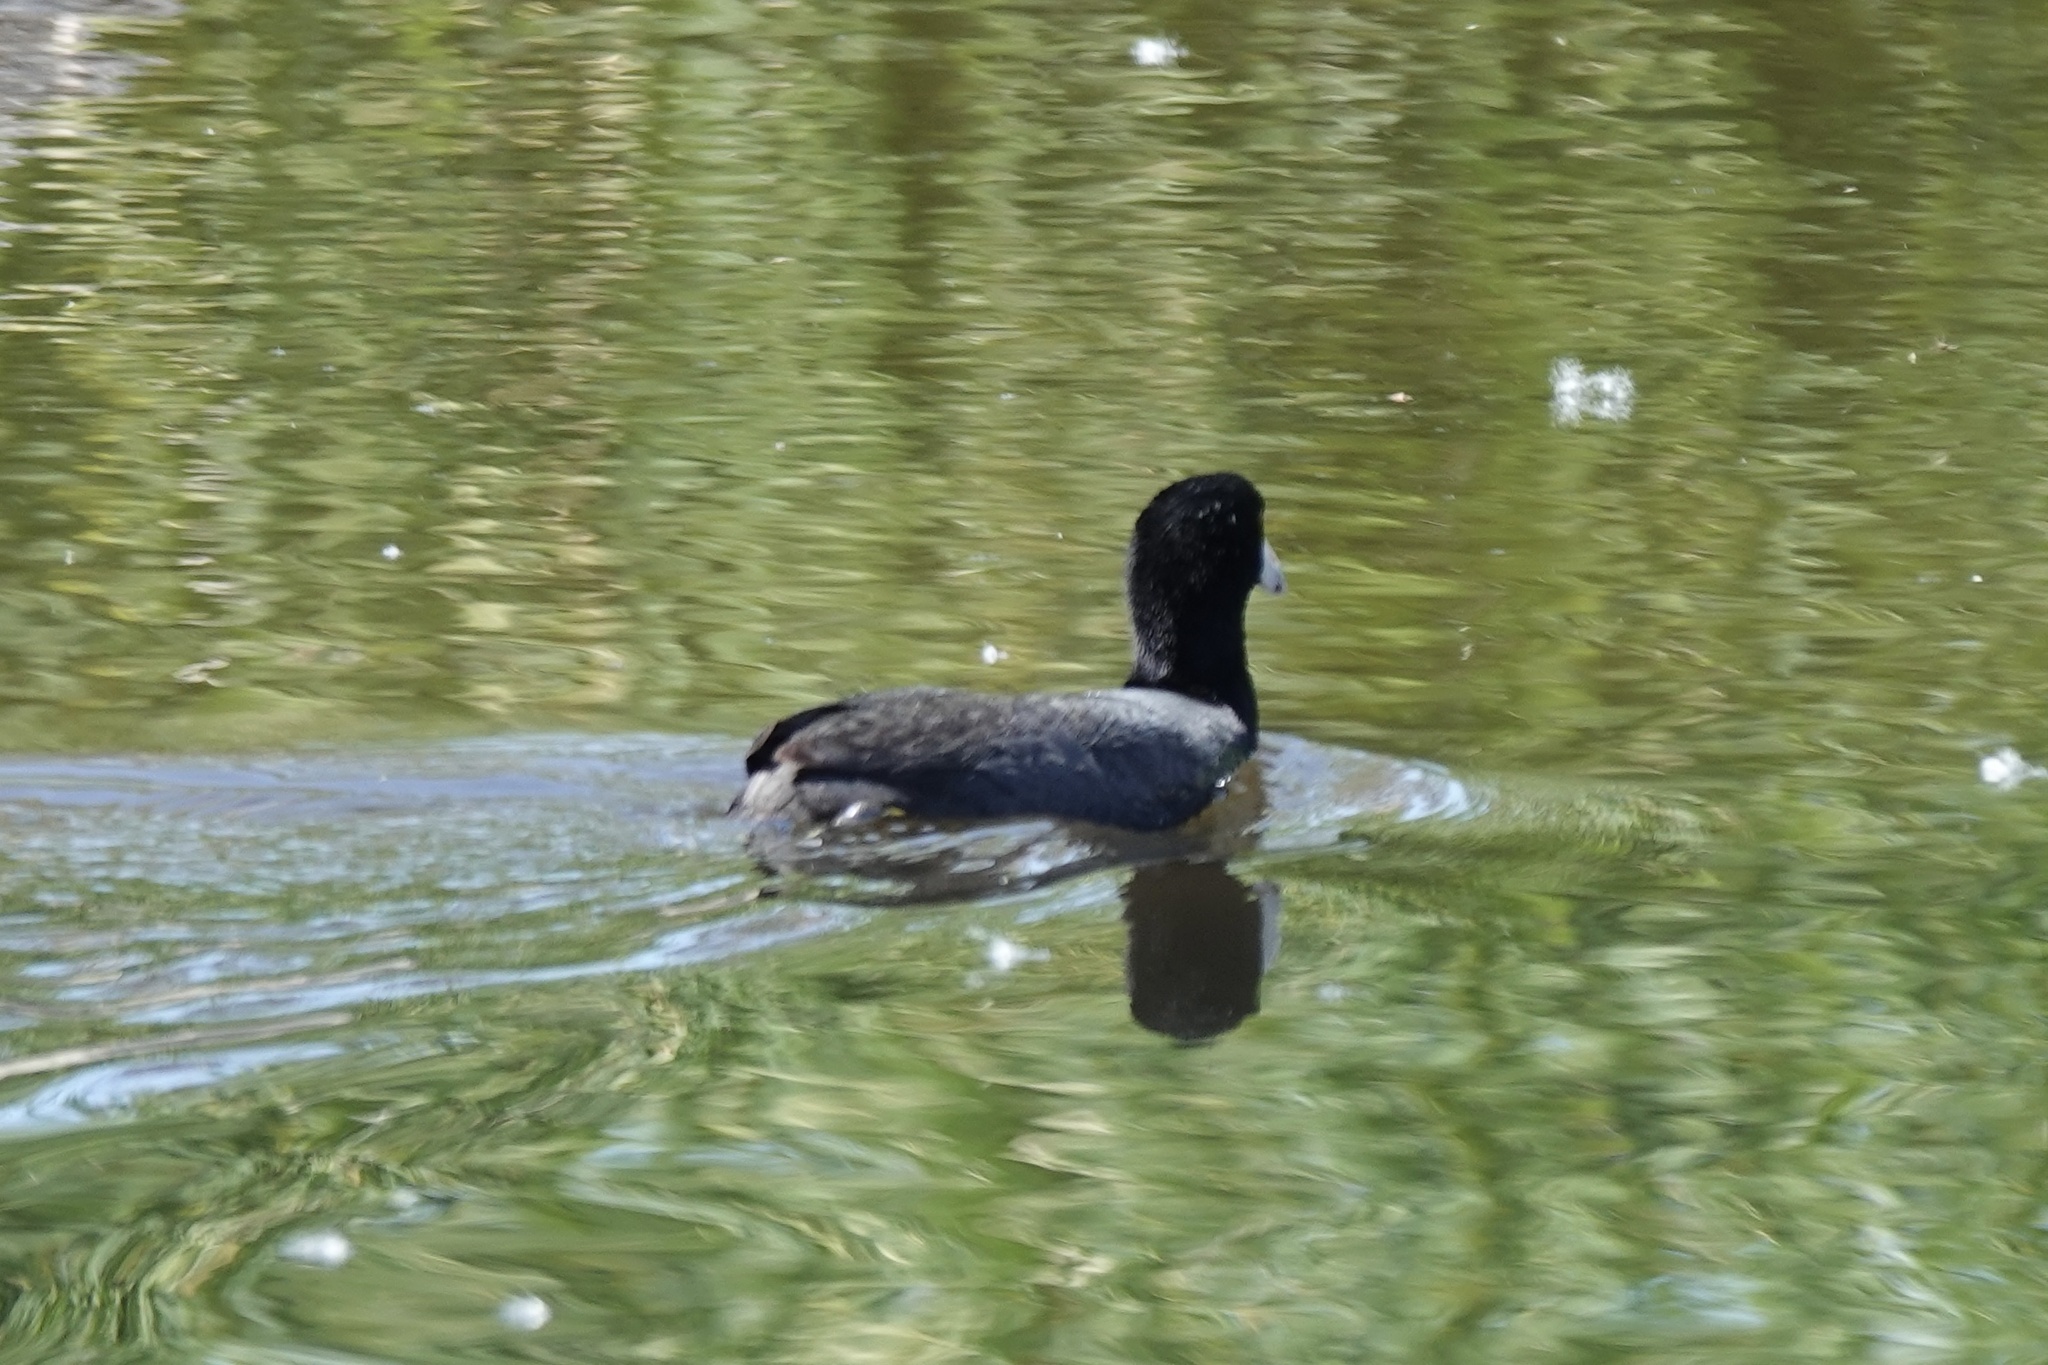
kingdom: Animalia
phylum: Chordata
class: Aves
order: Gruiformes
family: Rallidae
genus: Fulica
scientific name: Fulica americana
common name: American coot
